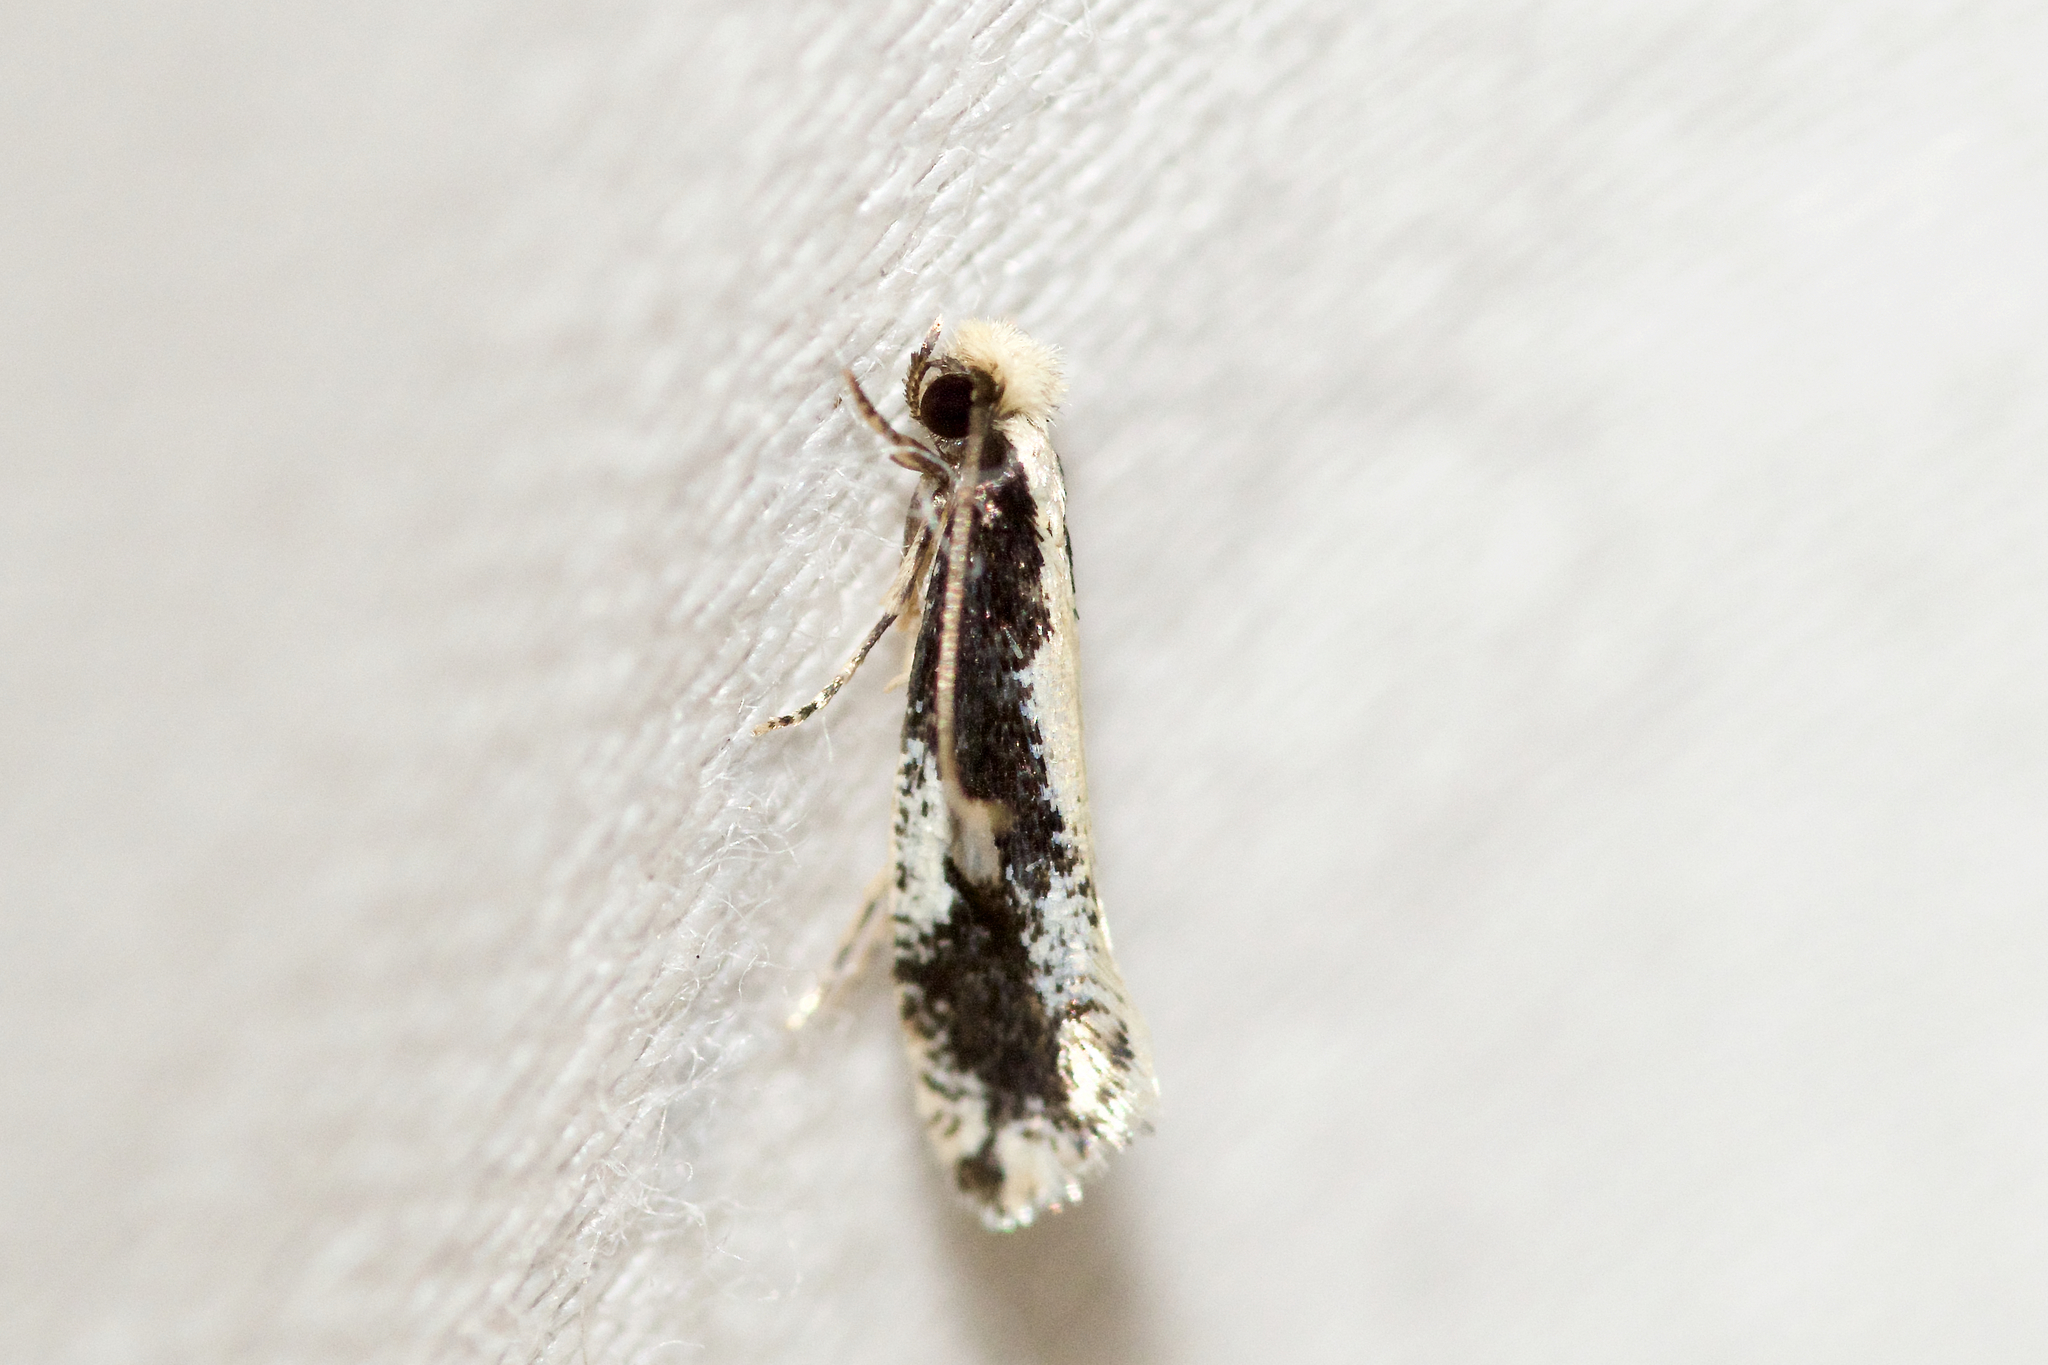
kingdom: Animalia
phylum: Arthropoda
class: Insecta
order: Lepidoptera
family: Tineidae
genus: Monopis
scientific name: Monopis dorsistrigella
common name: Skunkback monopis moth
